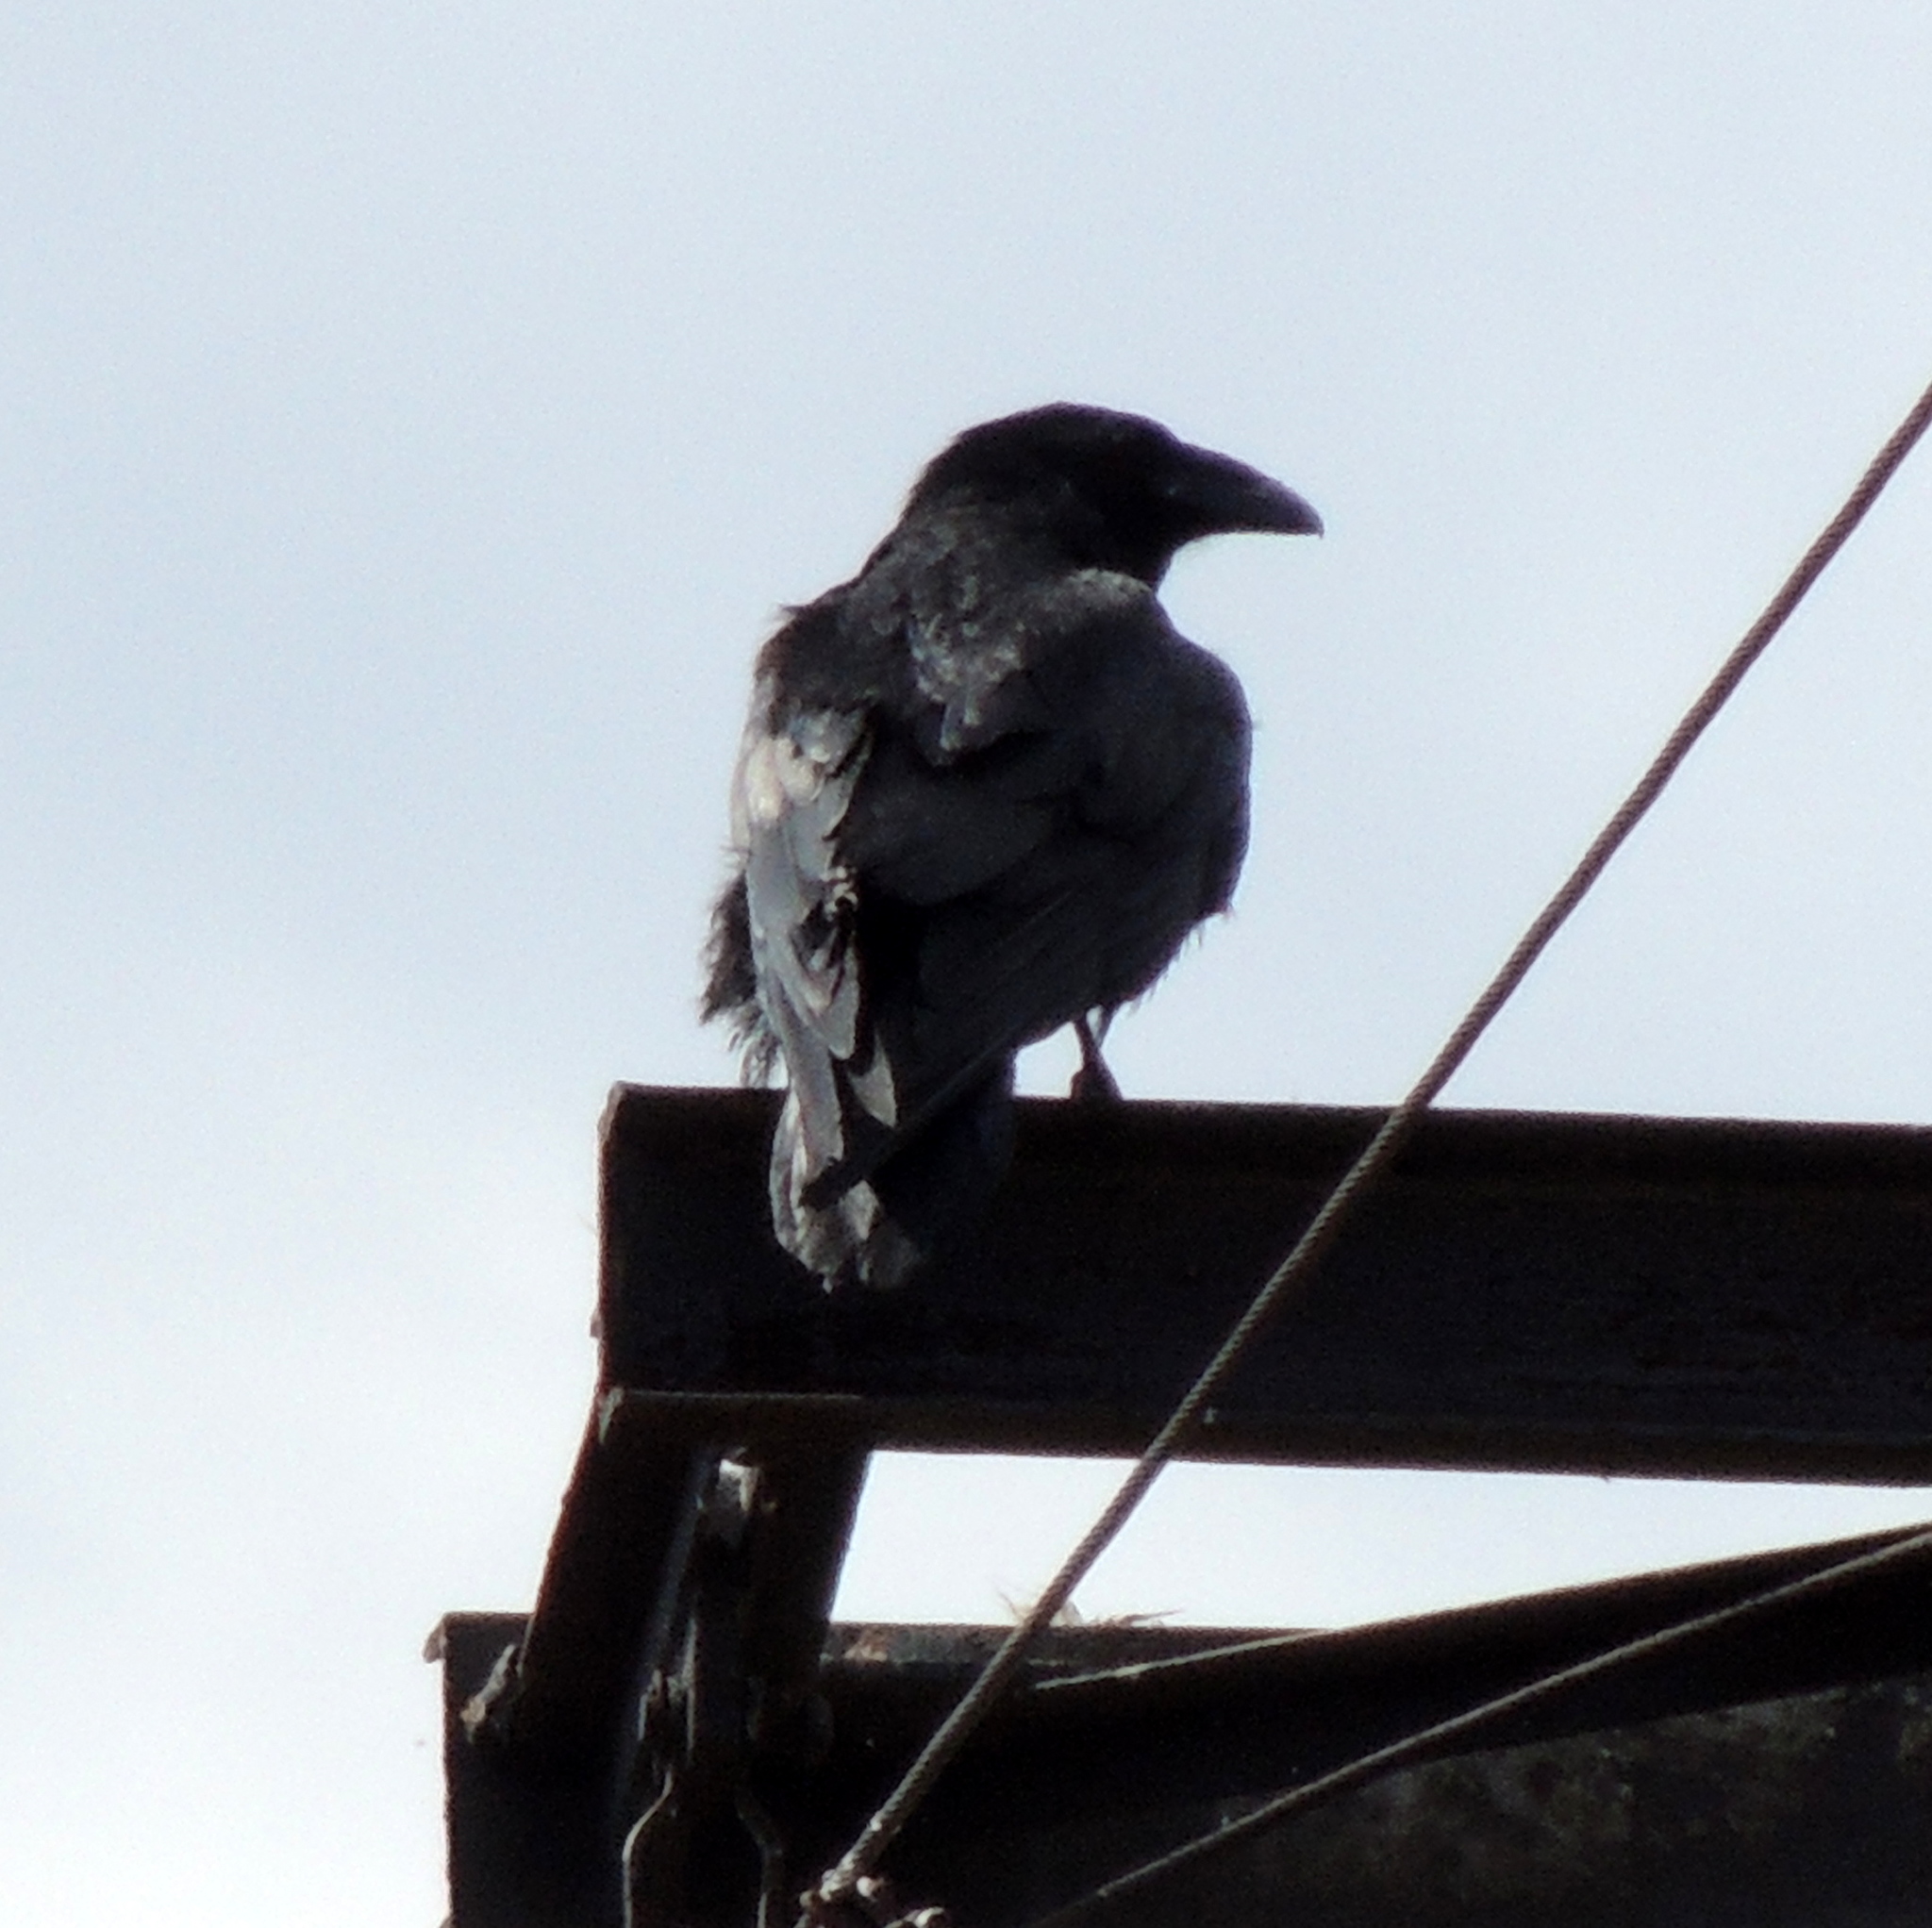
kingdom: Animalia
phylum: Chordata
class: Aves
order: Passeriformes
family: Corvidae
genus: Corvus
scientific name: Corvus corax
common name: Common raven
